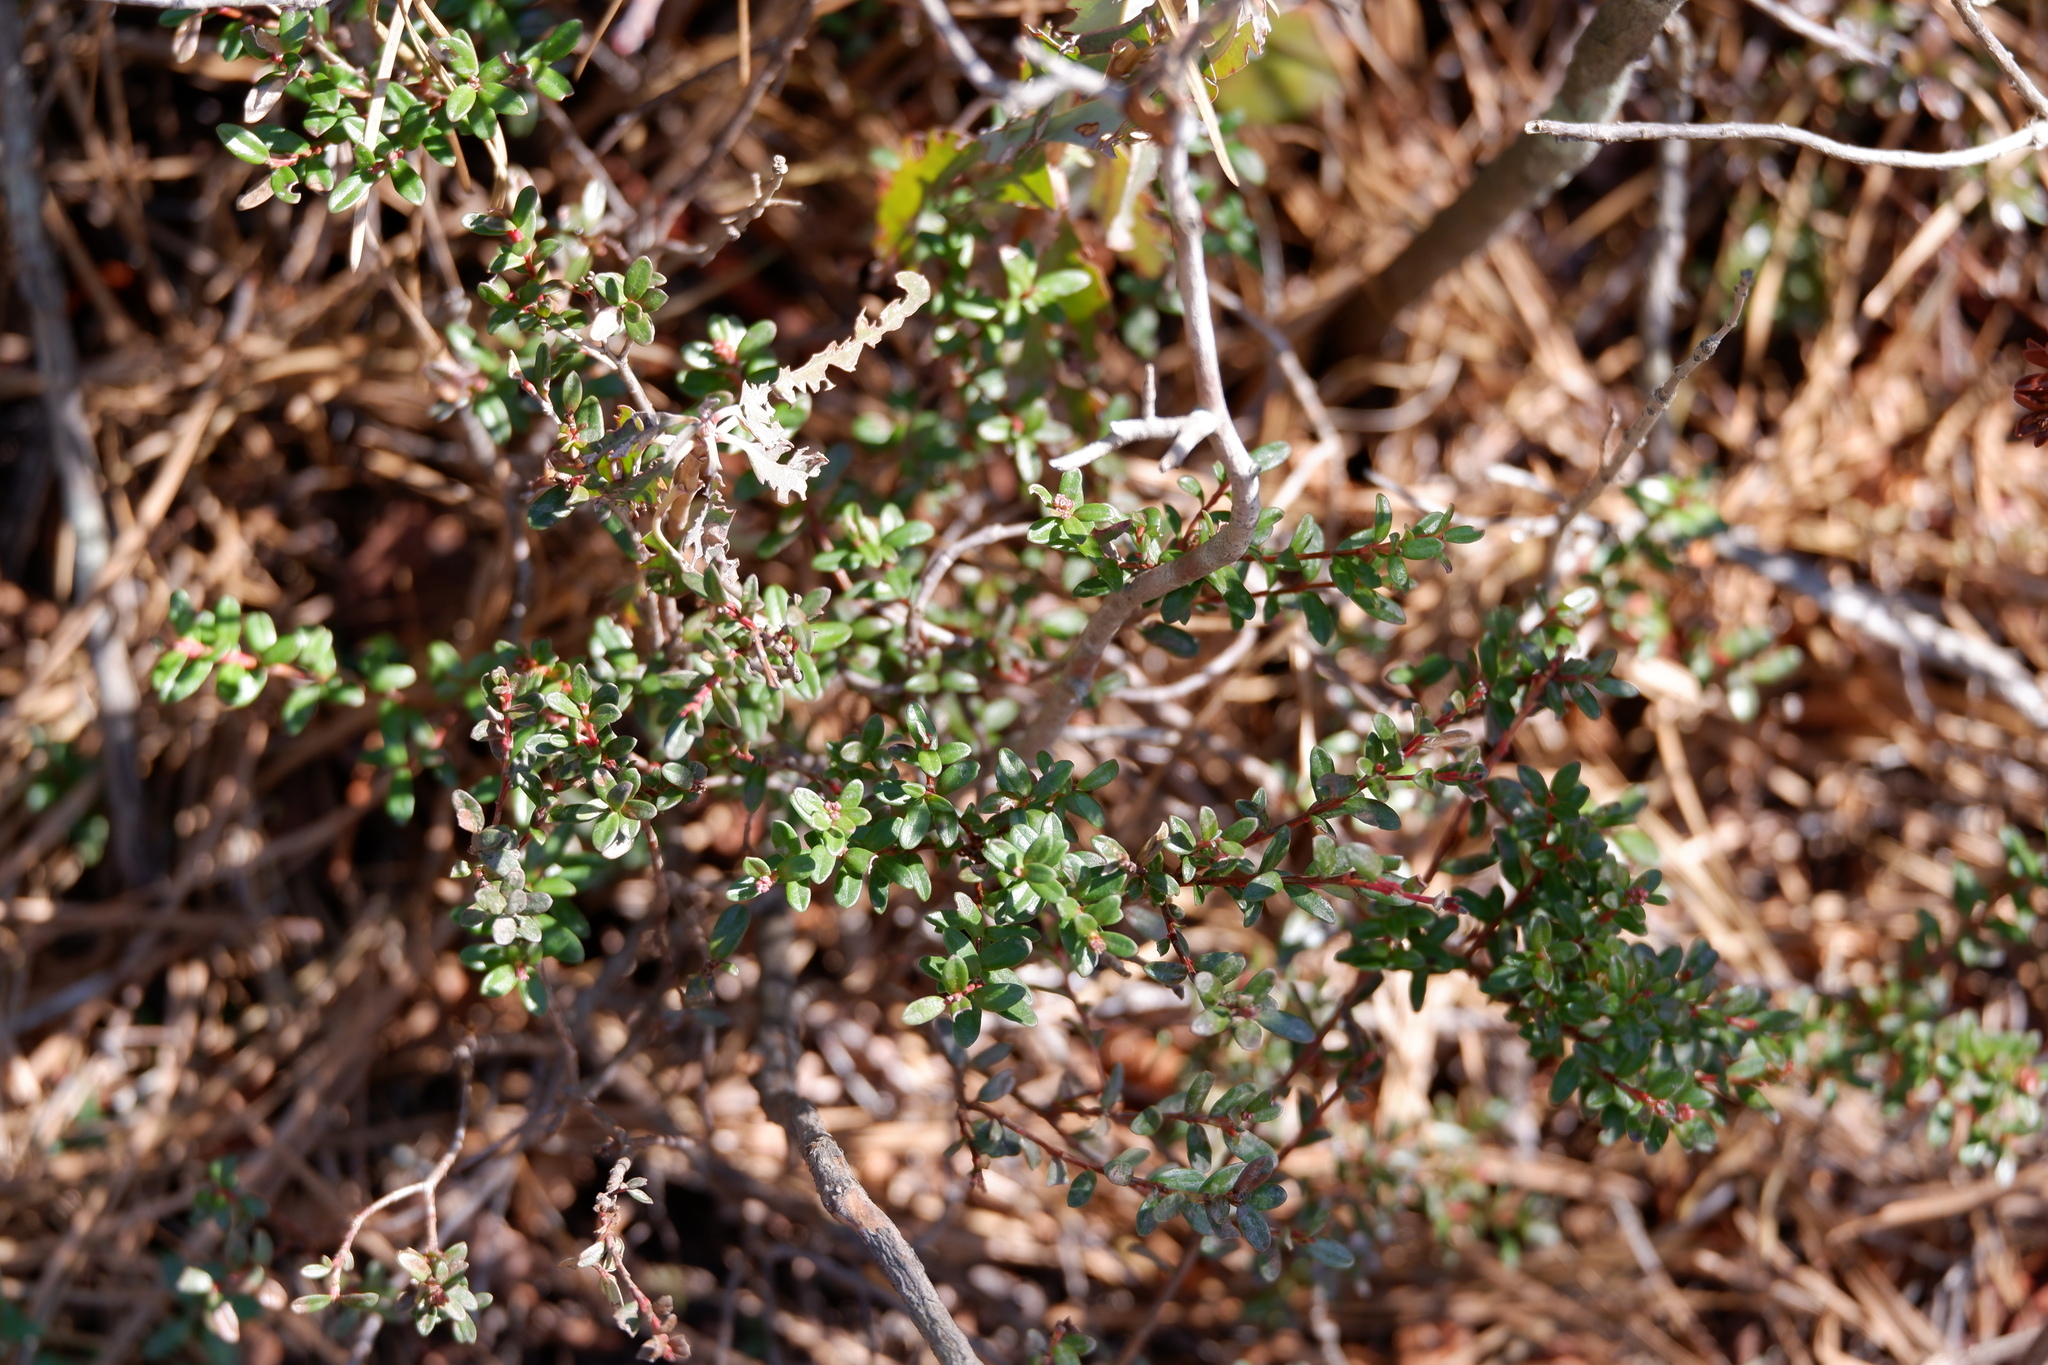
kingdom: Plantae
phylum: Tracheophyta
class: Magnoliopsida
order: Ericales
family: Ericaceae
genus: Kalmia
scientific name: Kalmia buxifolia
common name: Sandmyrtle
